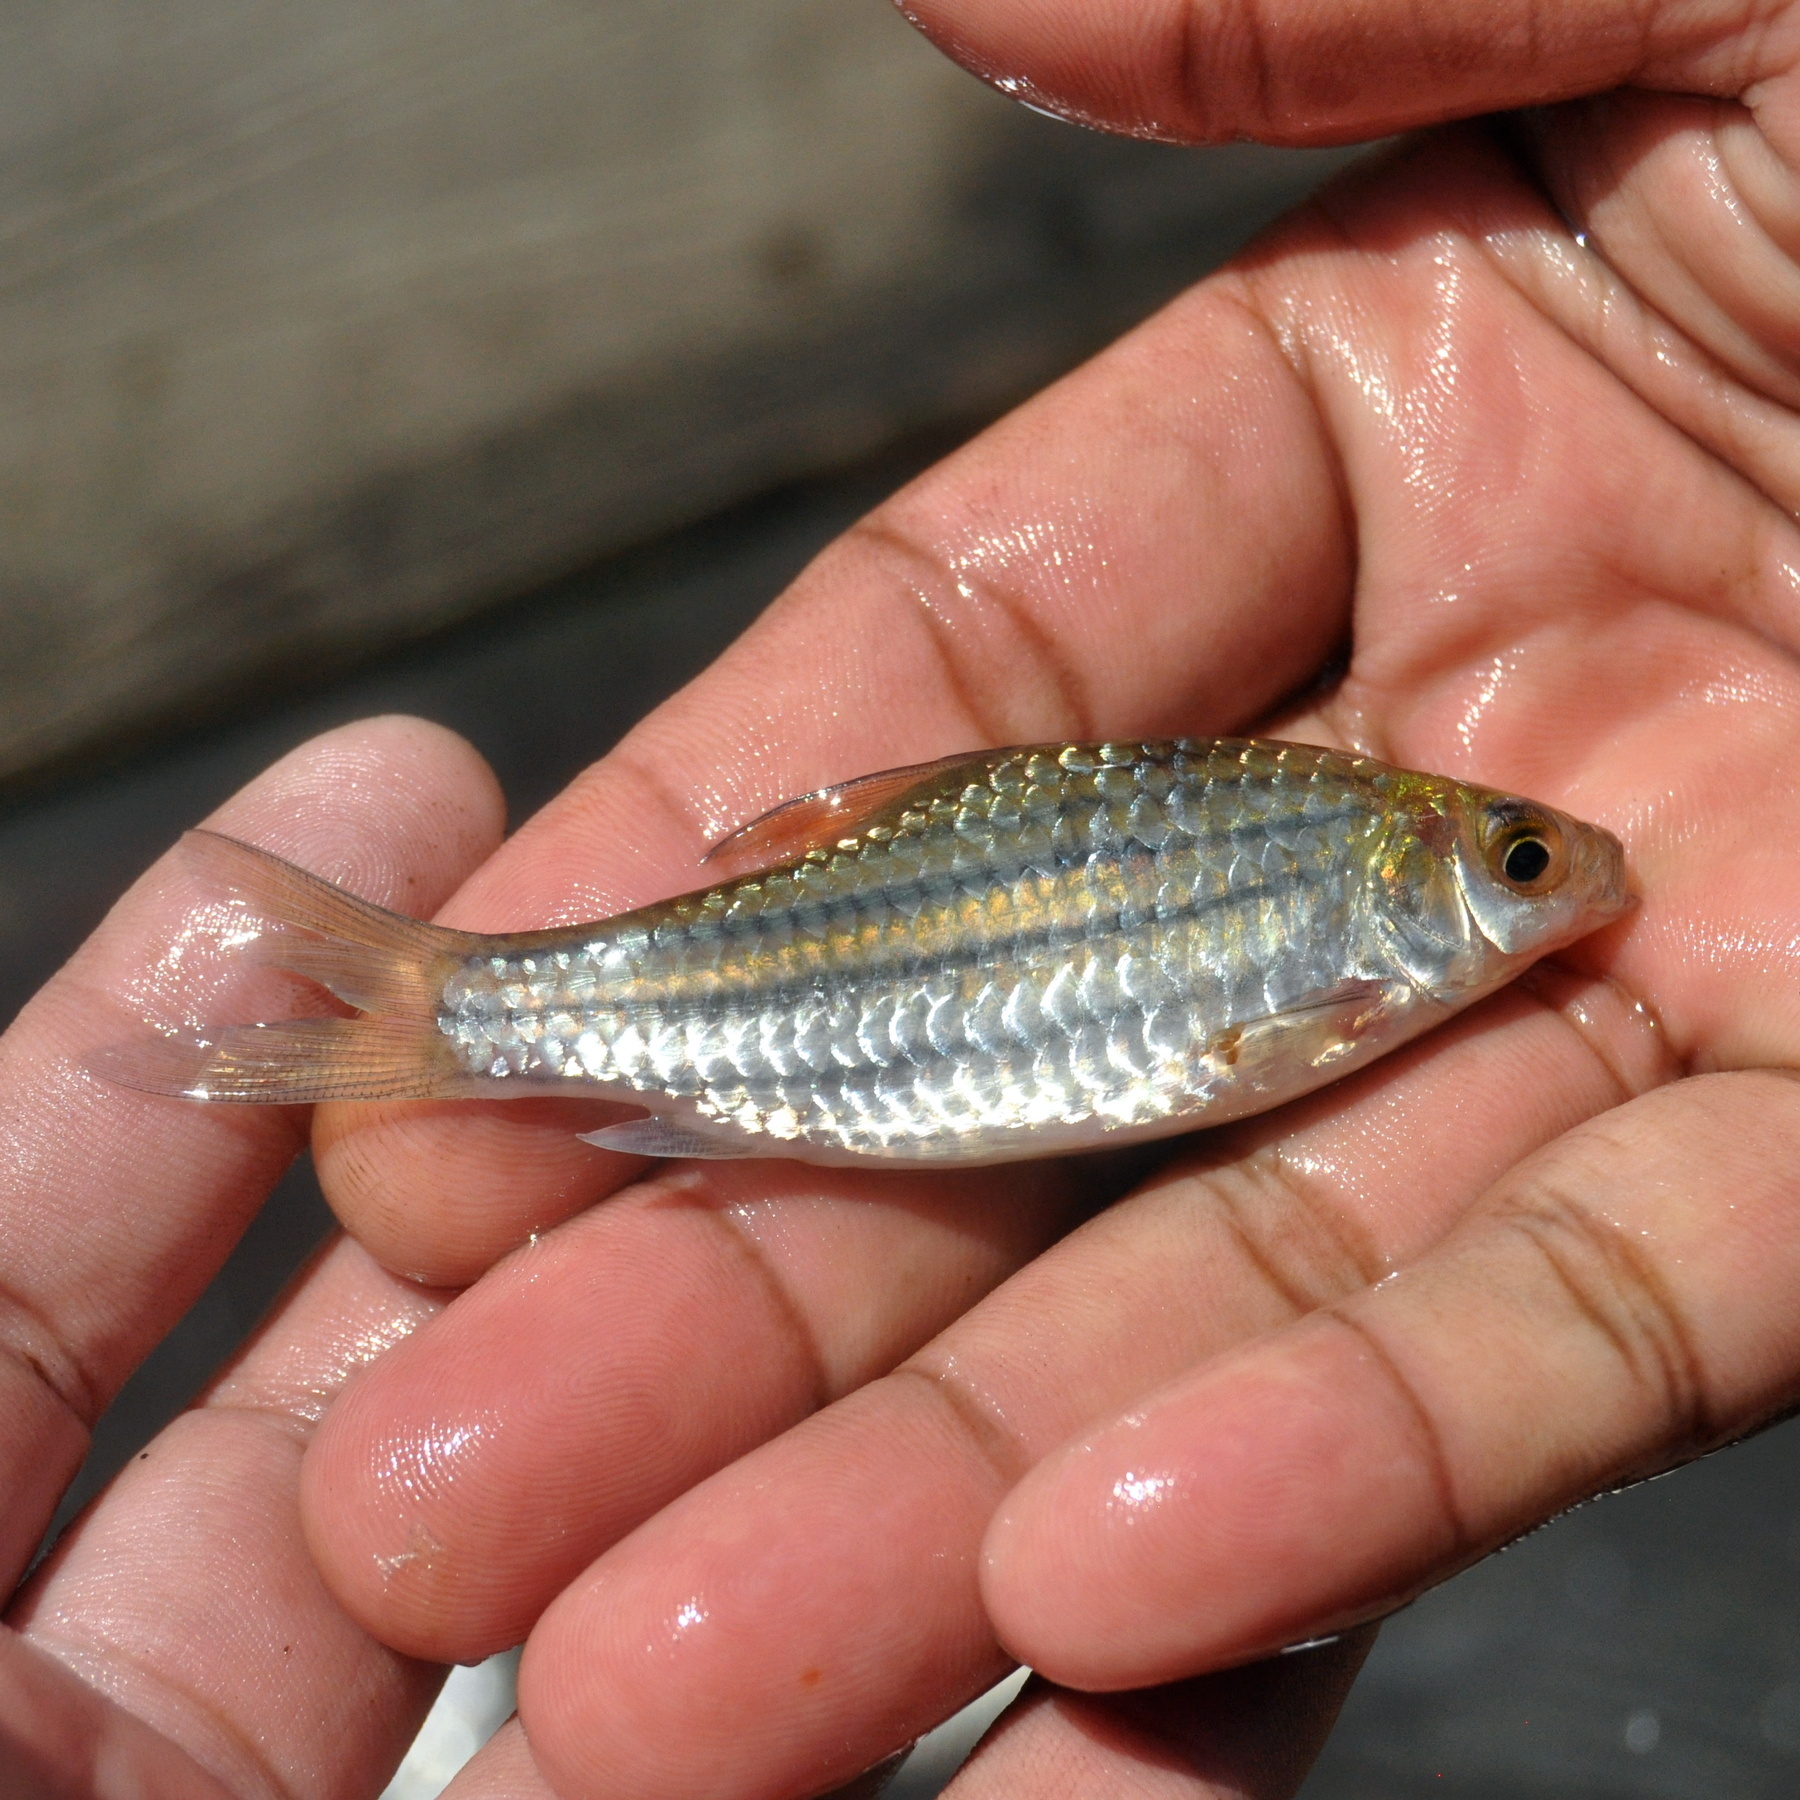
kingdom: Animalia
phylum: Chordata
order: Cypriniformes
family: Cyprinidae
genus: Desmopuntius
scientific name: Desmopuntius gemellus
